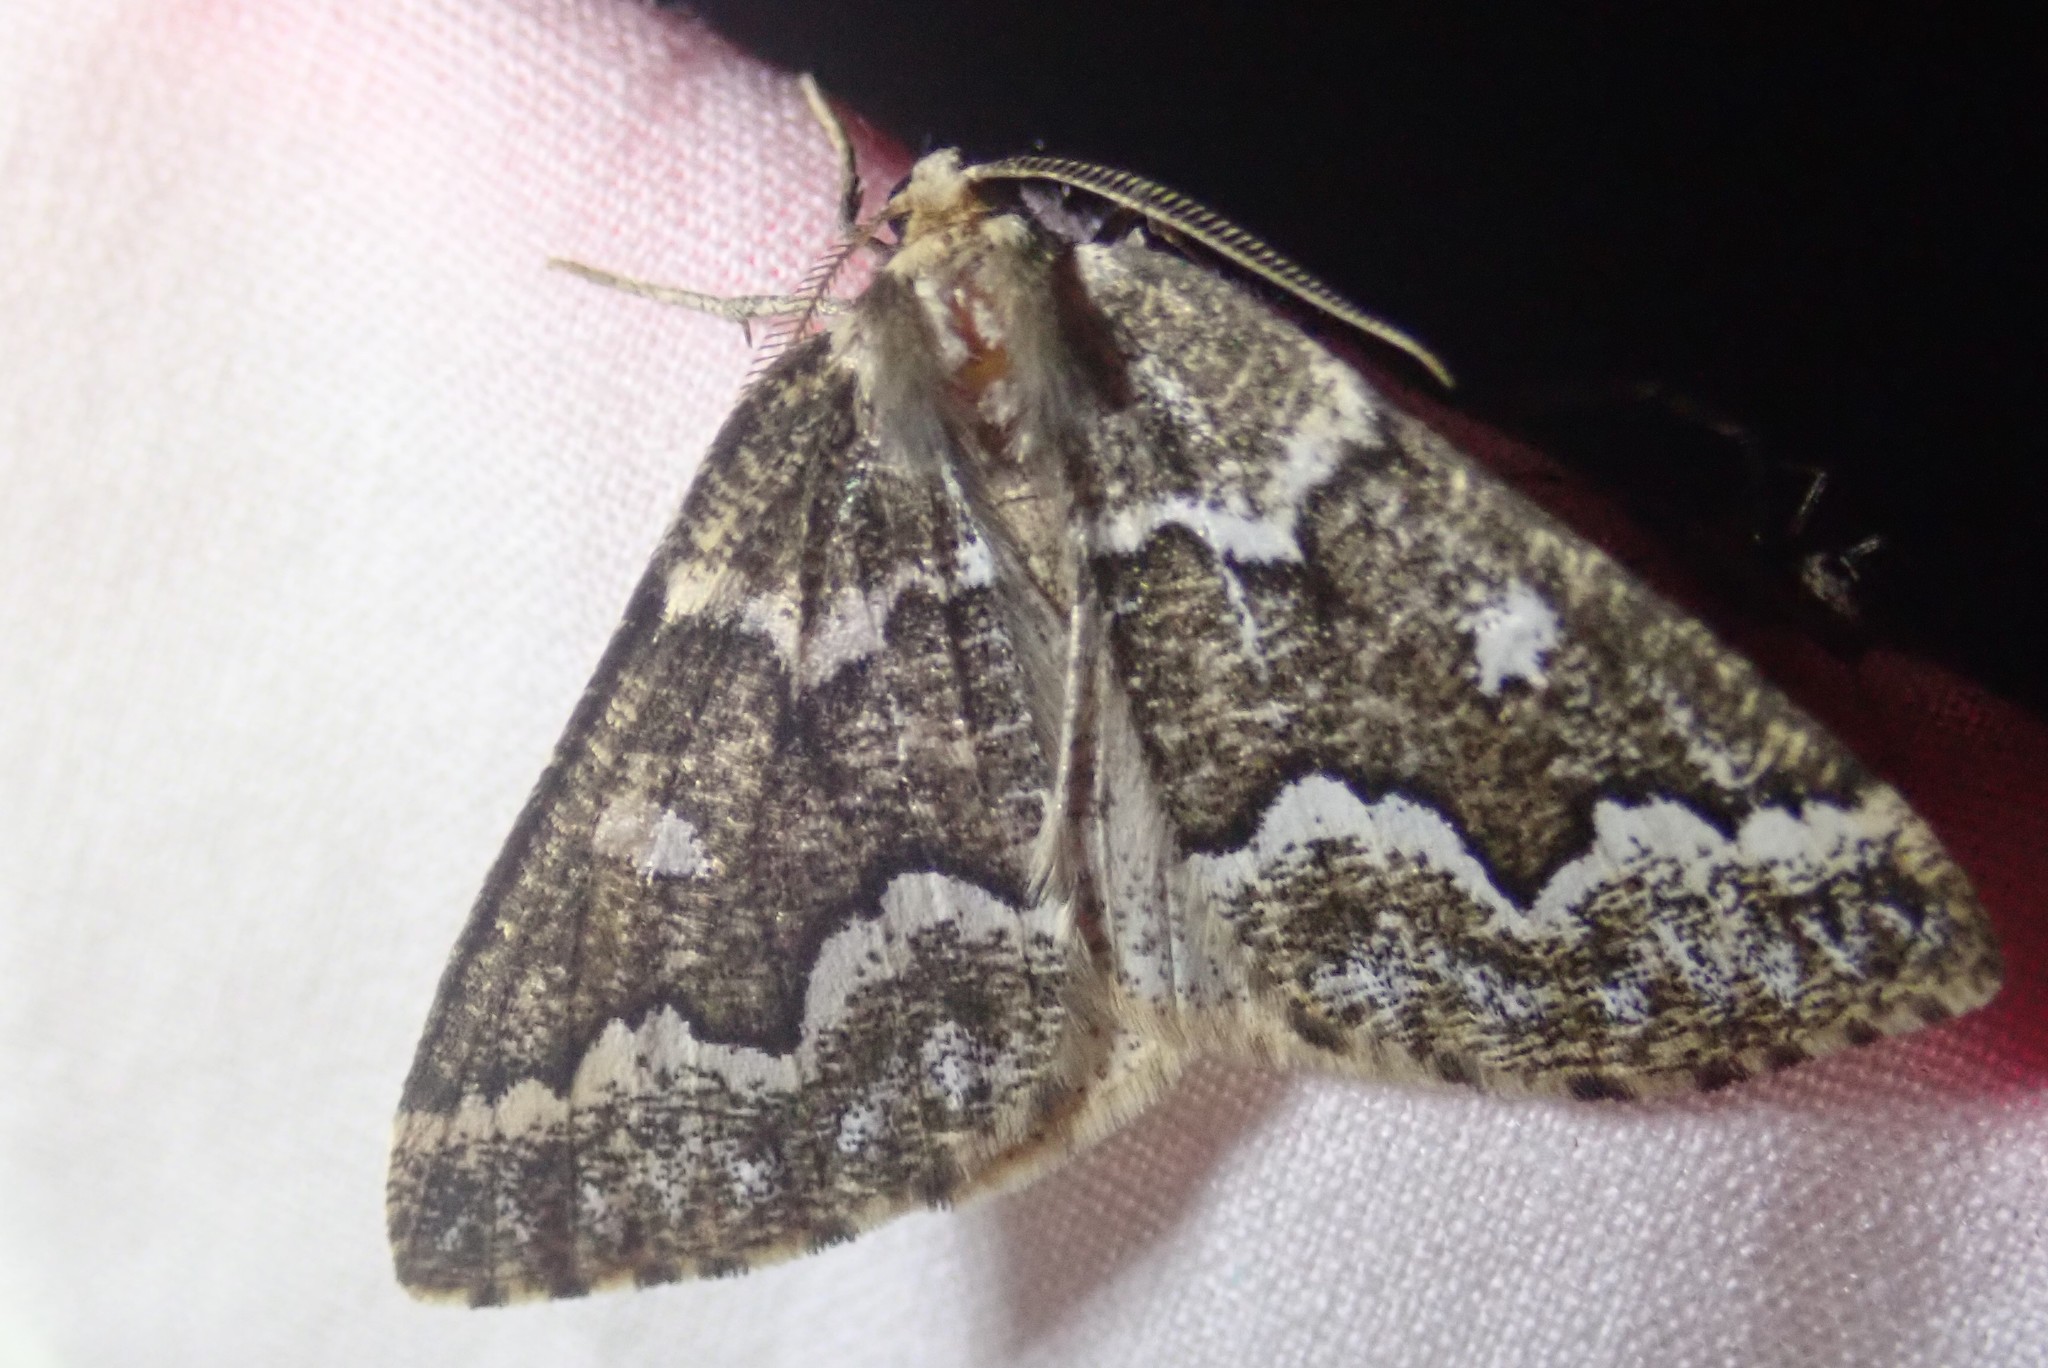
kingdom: Animalia
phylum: Arthropoda
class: Insecta
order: Lepidoptera
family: Geometridae
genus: Caripeta
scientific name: Caripeta divisata
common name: Gray spruce looper
